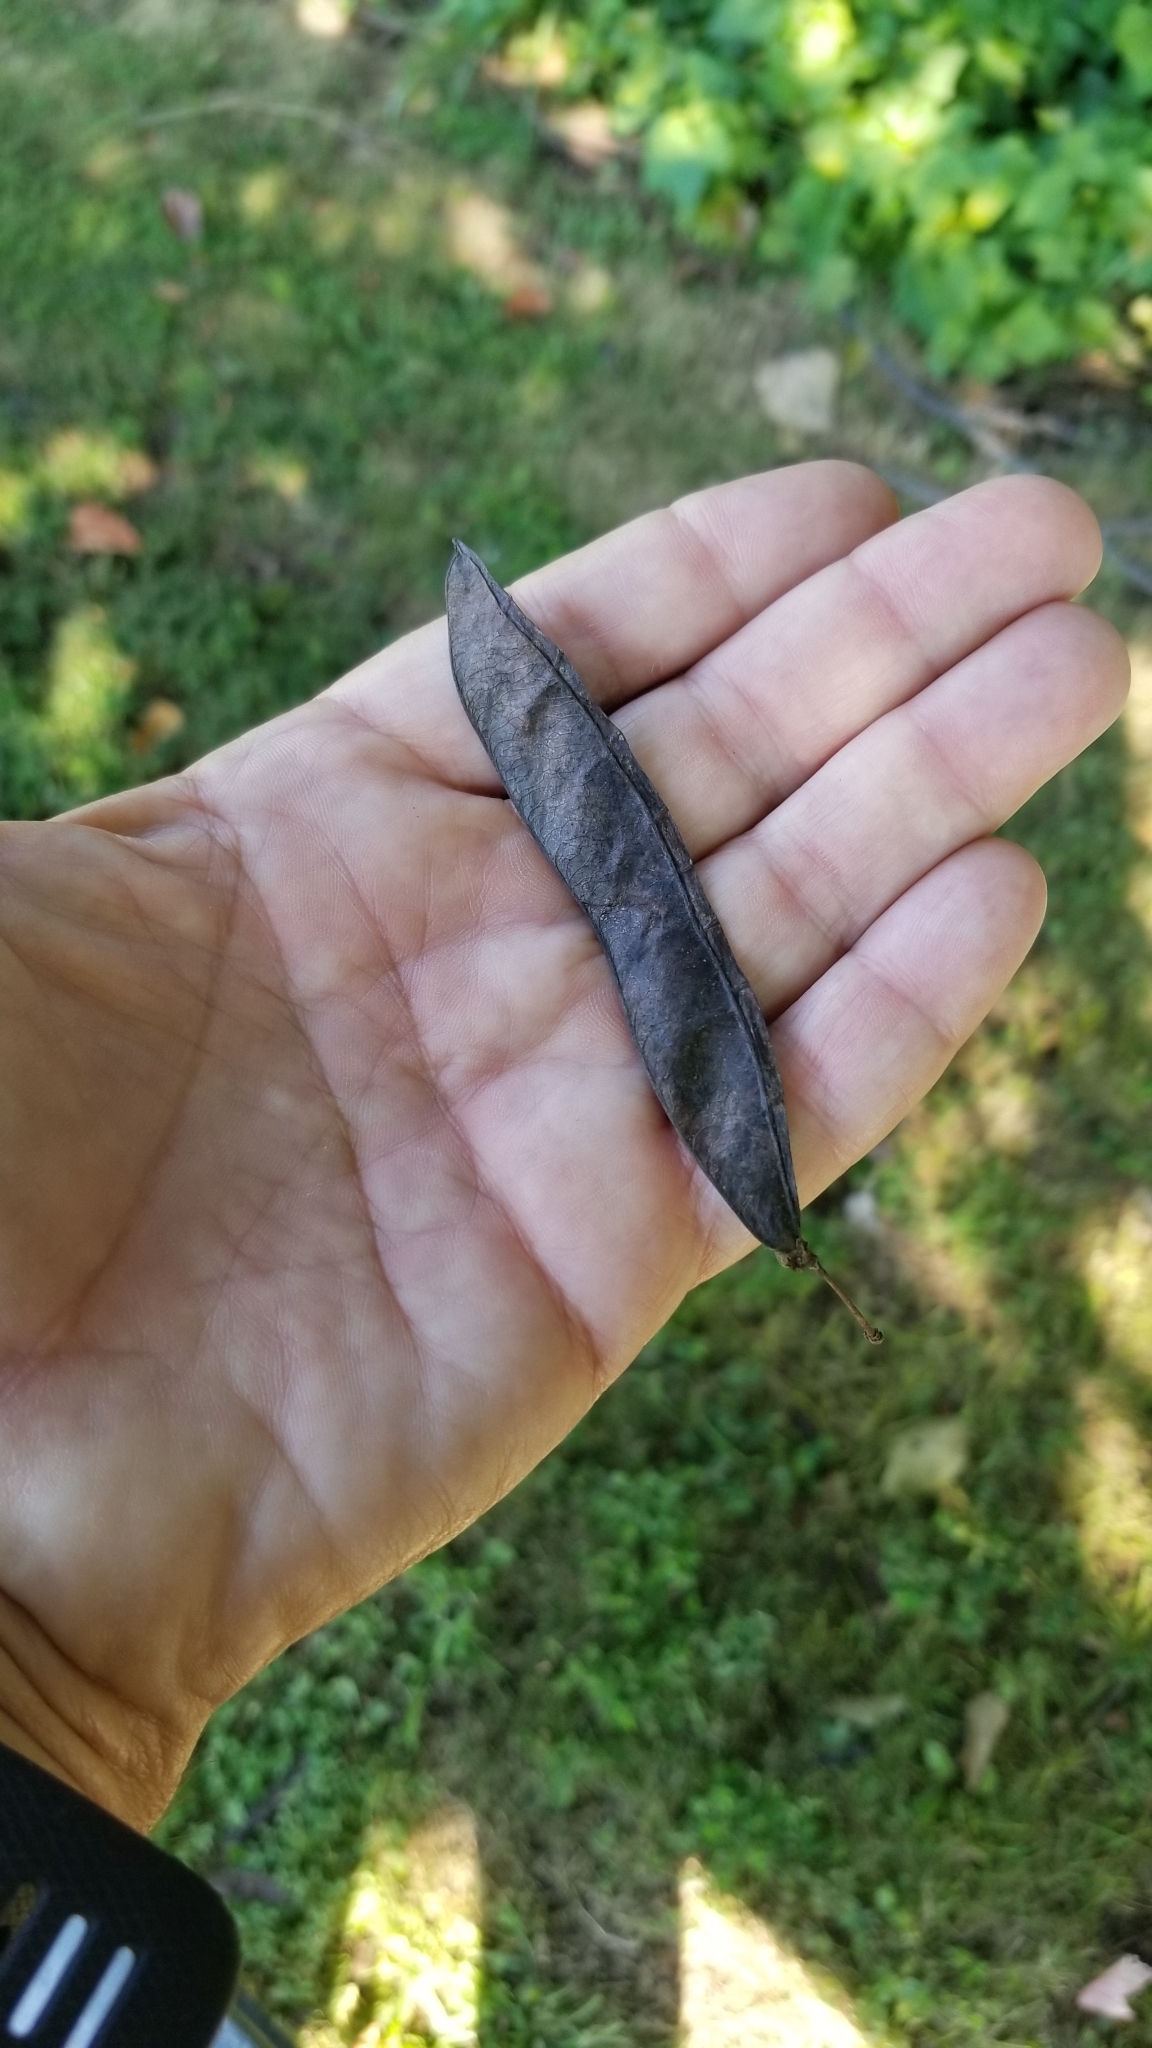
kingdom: Plantae
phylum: Tracheophyta
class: Magnoliopsida
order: Fabales
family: Fabaceae
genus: Cercis
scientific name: Cercis canadensis
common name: Eastern redbud
